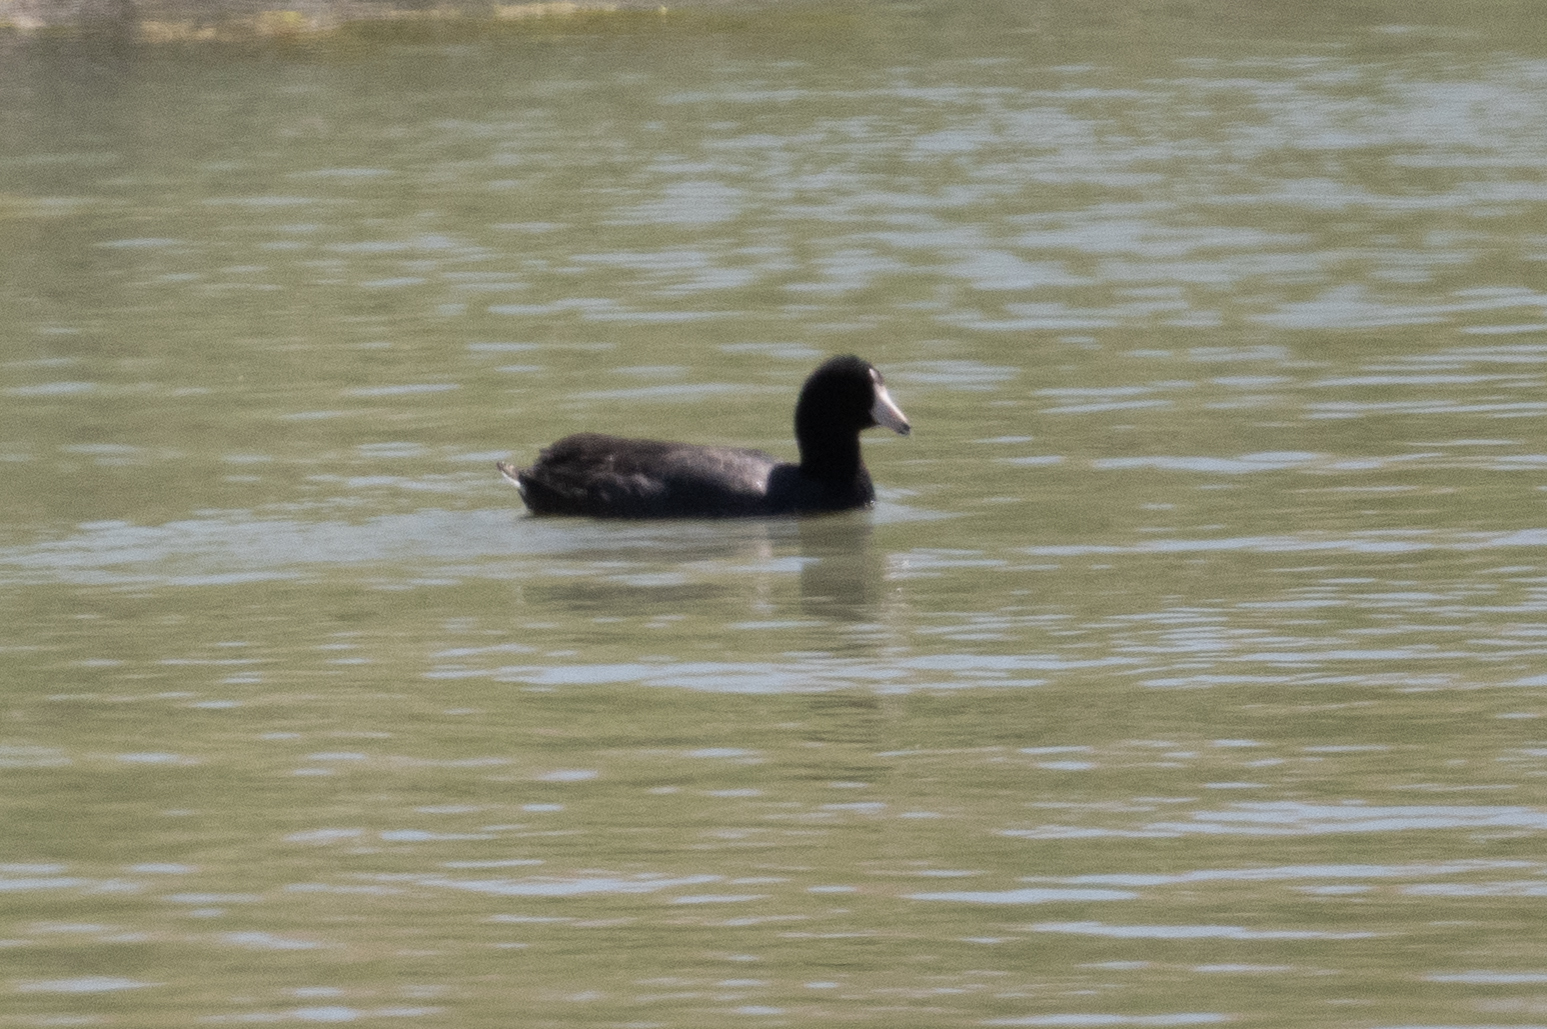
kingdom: Animalia
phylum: Chordata
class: Aves
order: Gruiformes
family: Rallidae
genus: Fulica
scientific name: Fulica americana
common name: American coot
